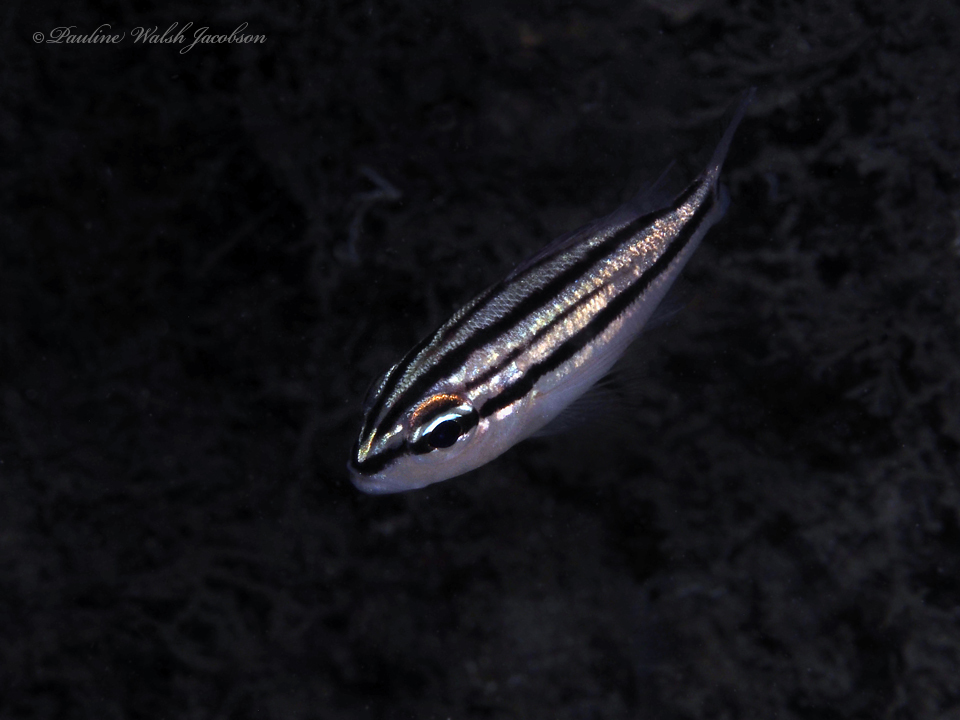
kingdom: Animalia
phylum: Chordata
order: Perciformes
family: Haemulidae
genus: Haemulon
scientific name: Haemulon chrysargyreum
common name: Smallmouth grunt
